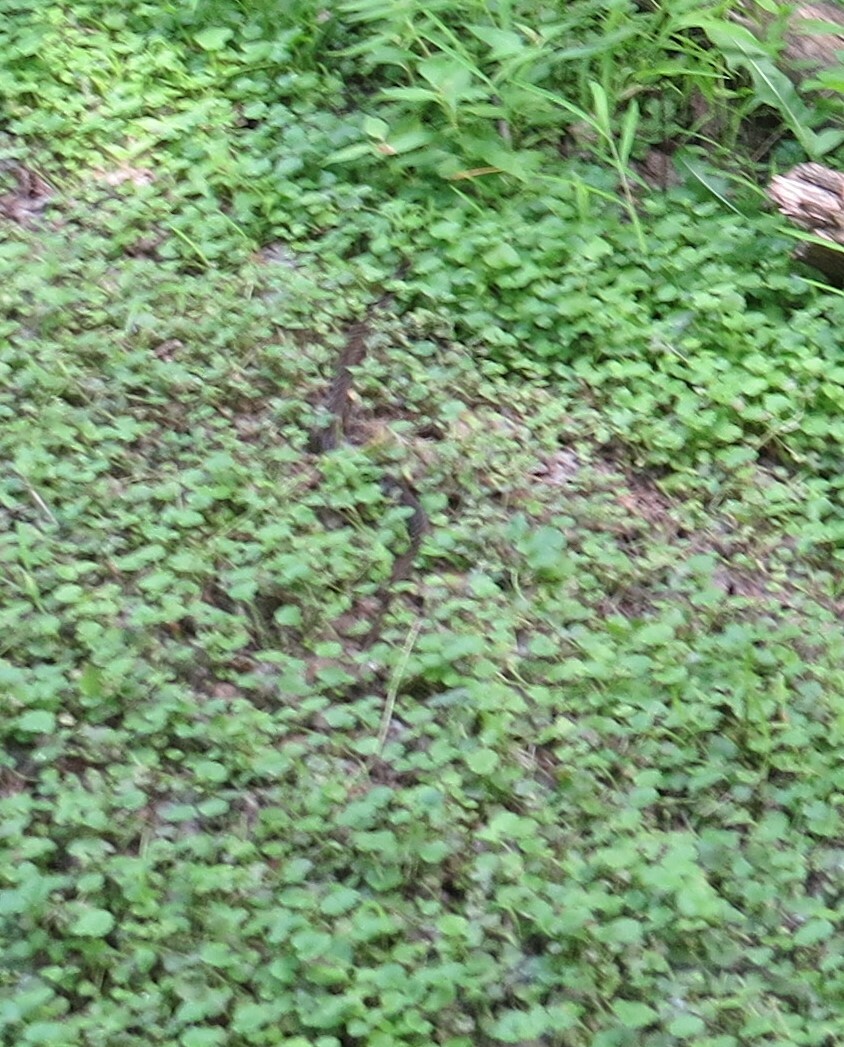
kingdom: Animalia
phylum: Chordata
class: Squamata
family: Colubridae
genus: Pantherophis
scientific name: Pantherophis ramspotti
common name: Western foxsnake
